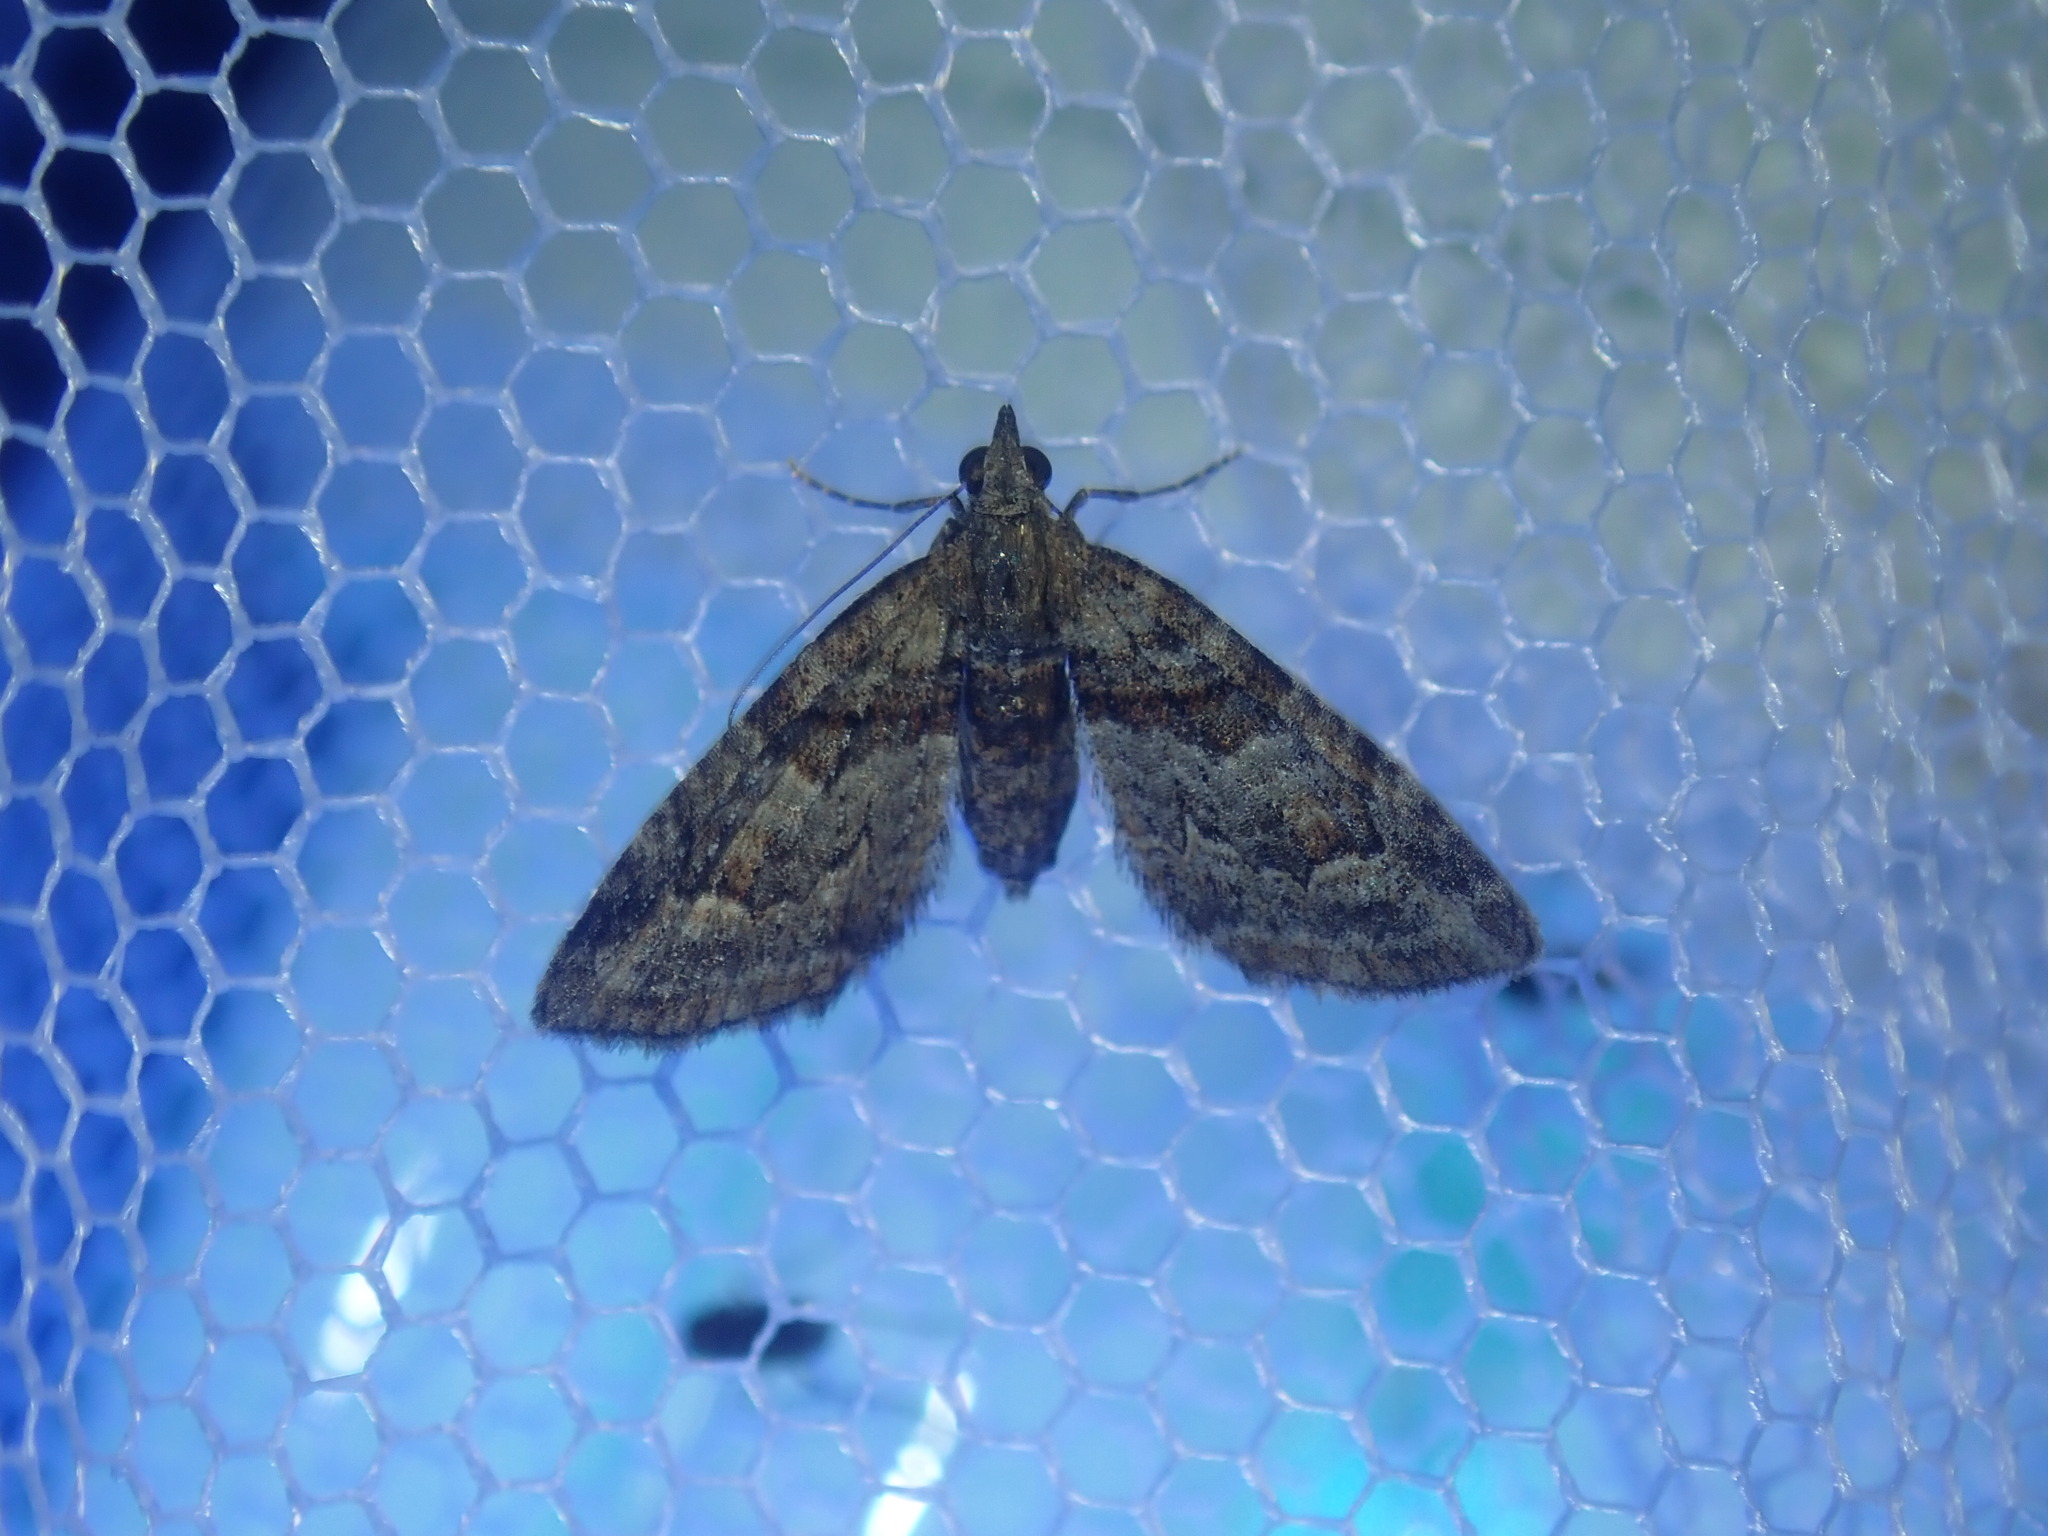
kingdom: Animalia
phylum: Arthropoda
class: Insecta
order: Lepidoptera
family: Geometridae
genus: Phrissogonus
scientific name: Phrissogonus laticostata
